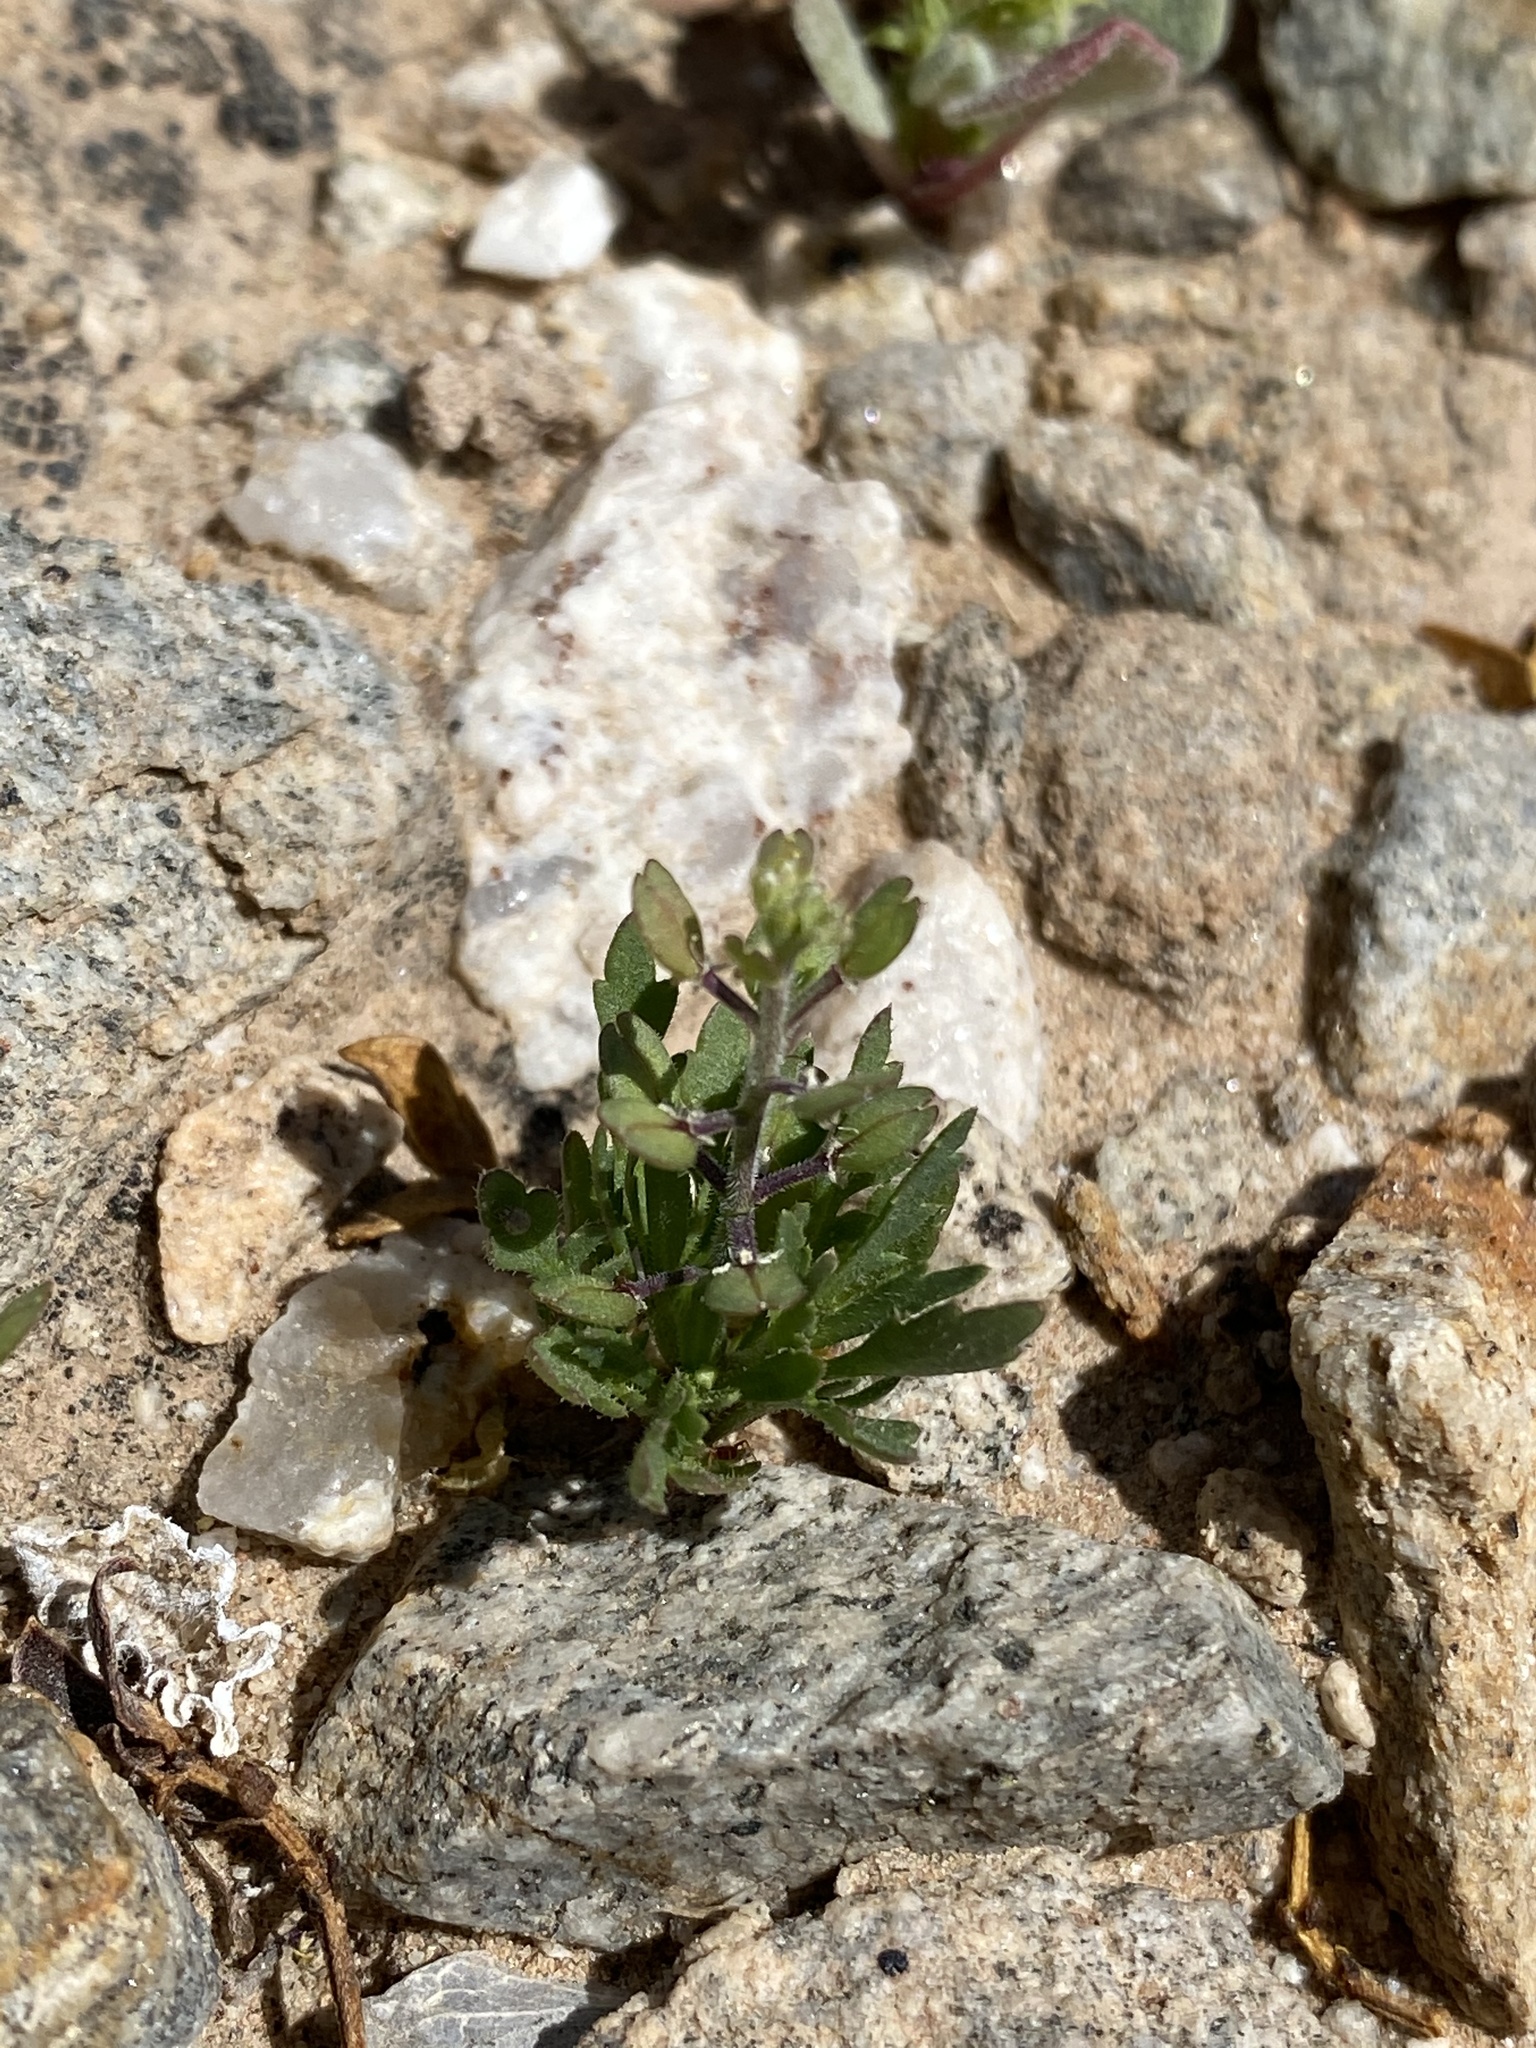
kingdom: Plantae
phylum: Tracheophyta
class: Magnoliopsida
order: Brassicales
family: Brassicaceae
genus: Lepidium
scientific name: Lepidium lasiocarpum
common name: Hairy-pod pepperwort
